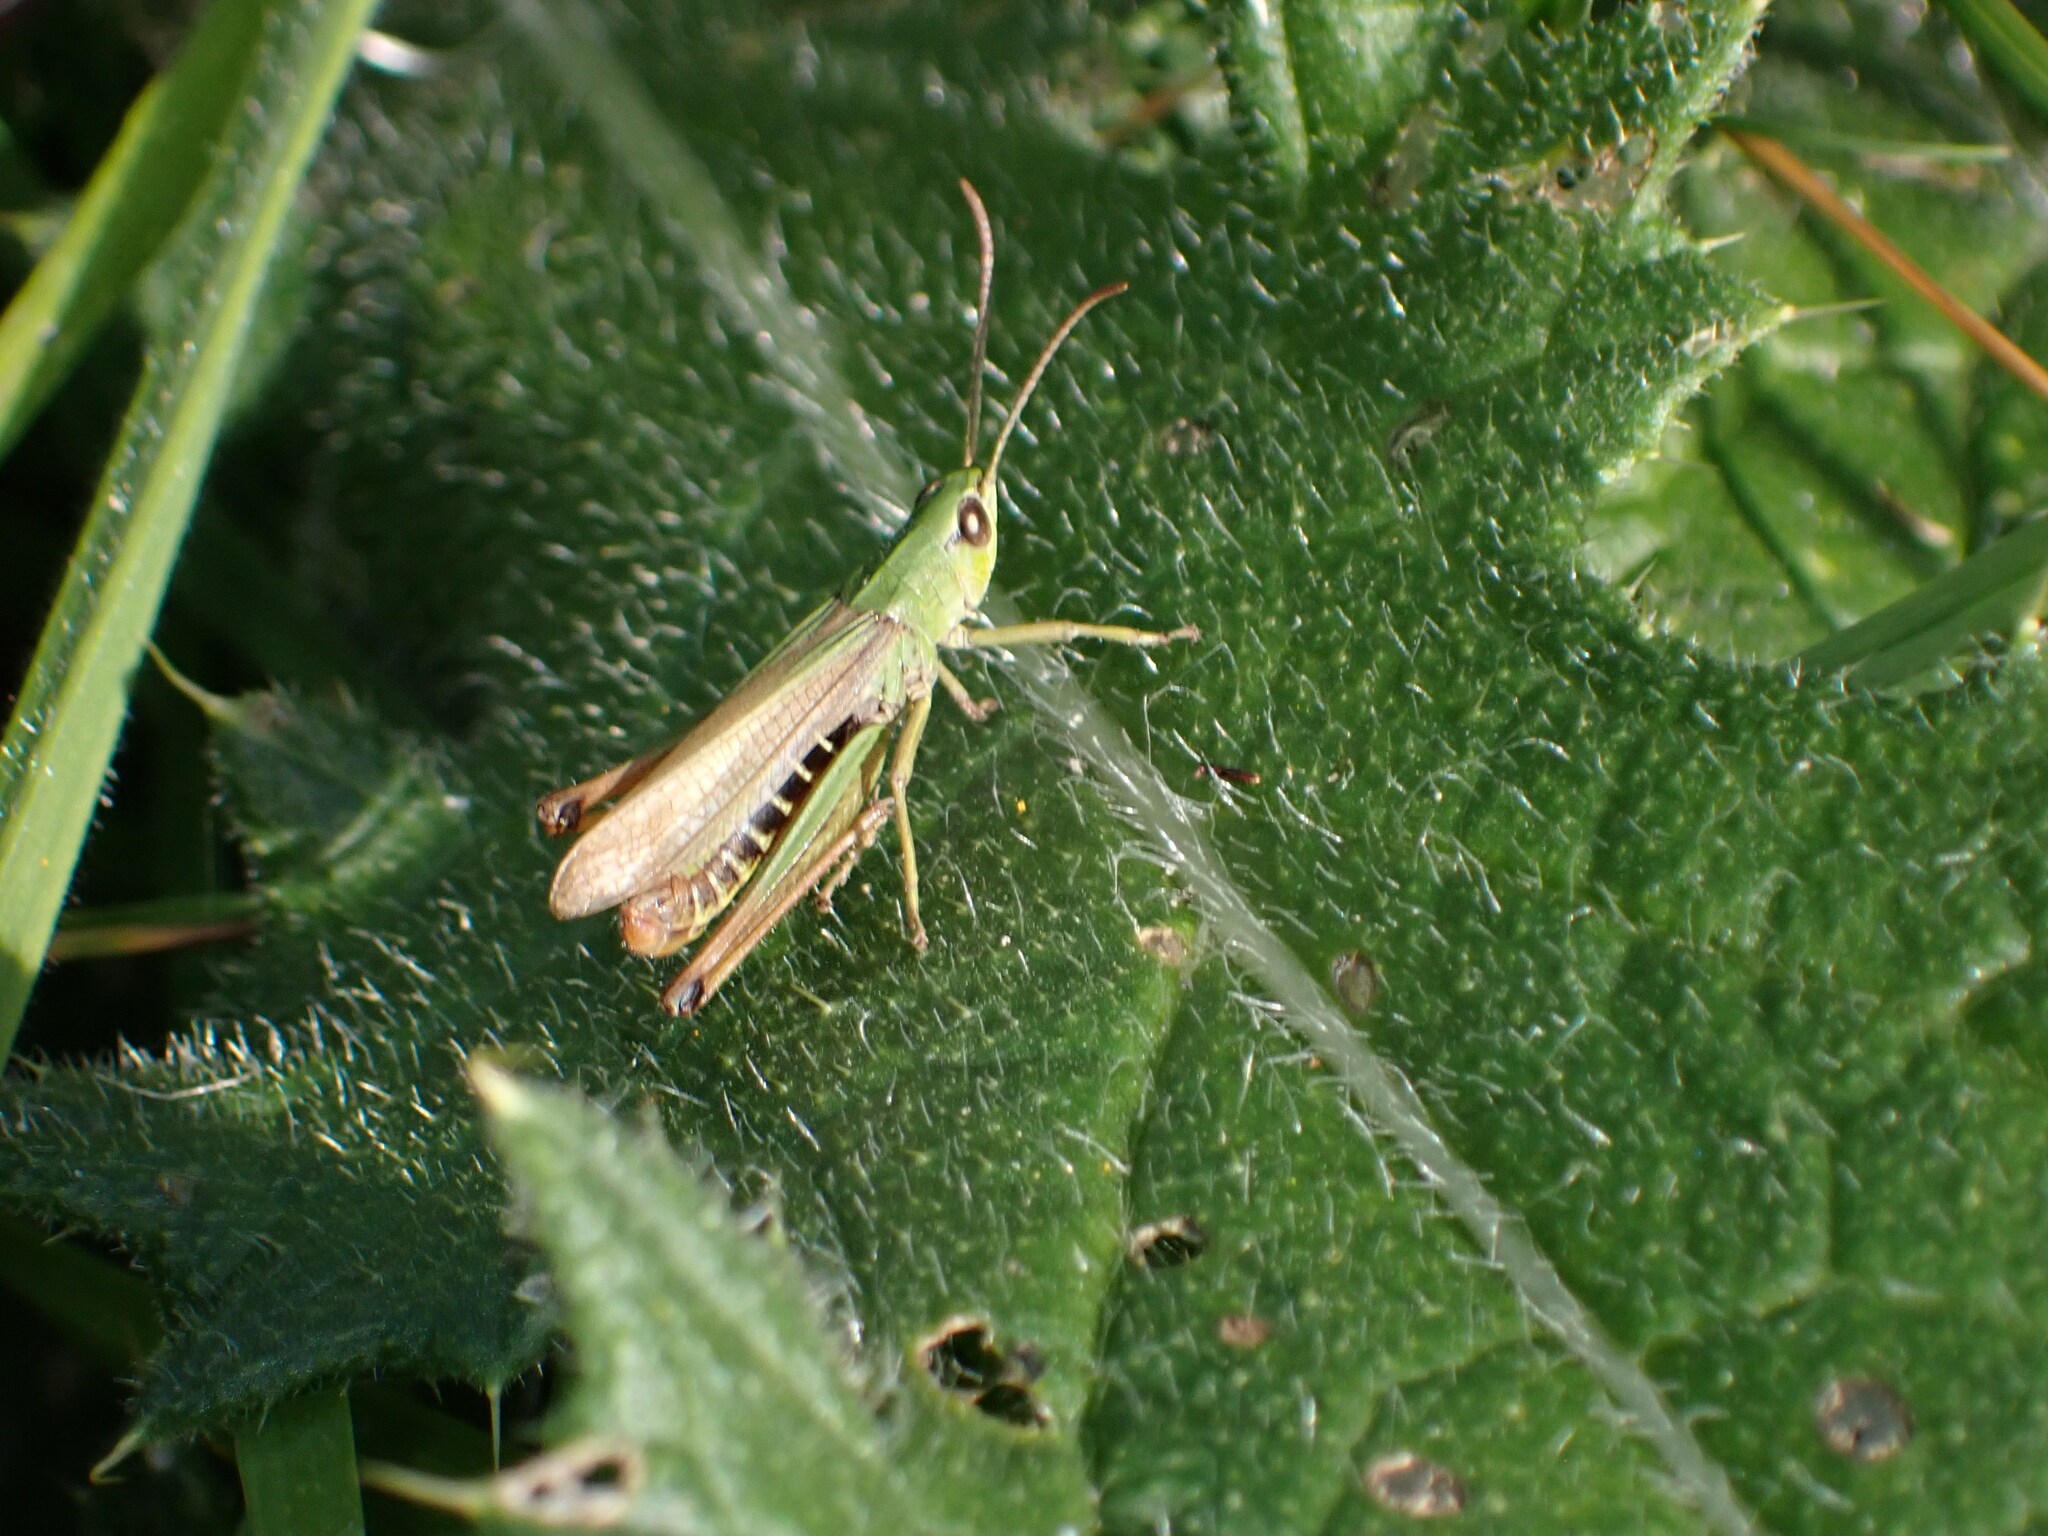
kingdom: Animalia
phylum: Arthropoda
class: Insecta
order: Orthoptera
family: Acrididae
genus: Pseudochorthippus
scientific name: Pseudochorthippus parallelus
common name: Meadow grasshopper
